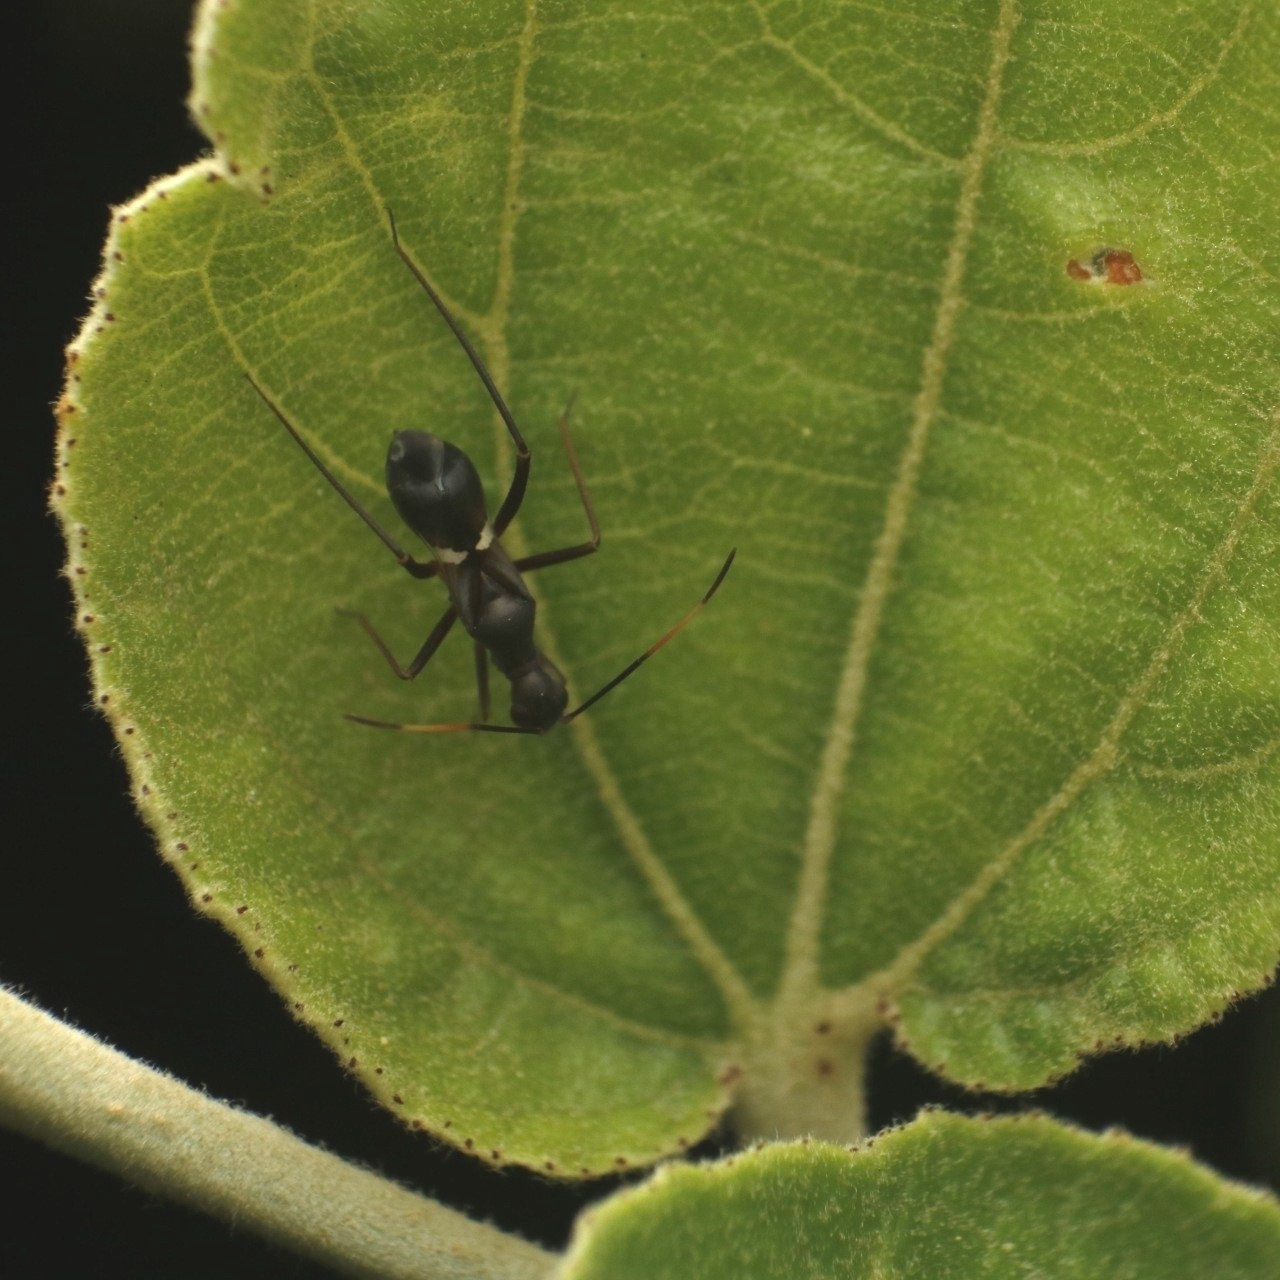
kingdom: Animalia
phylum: Arthropoda
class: Insecta
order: Hemiptera
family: Miridae
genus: Sohenus
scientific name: Sohenus uvarovi
